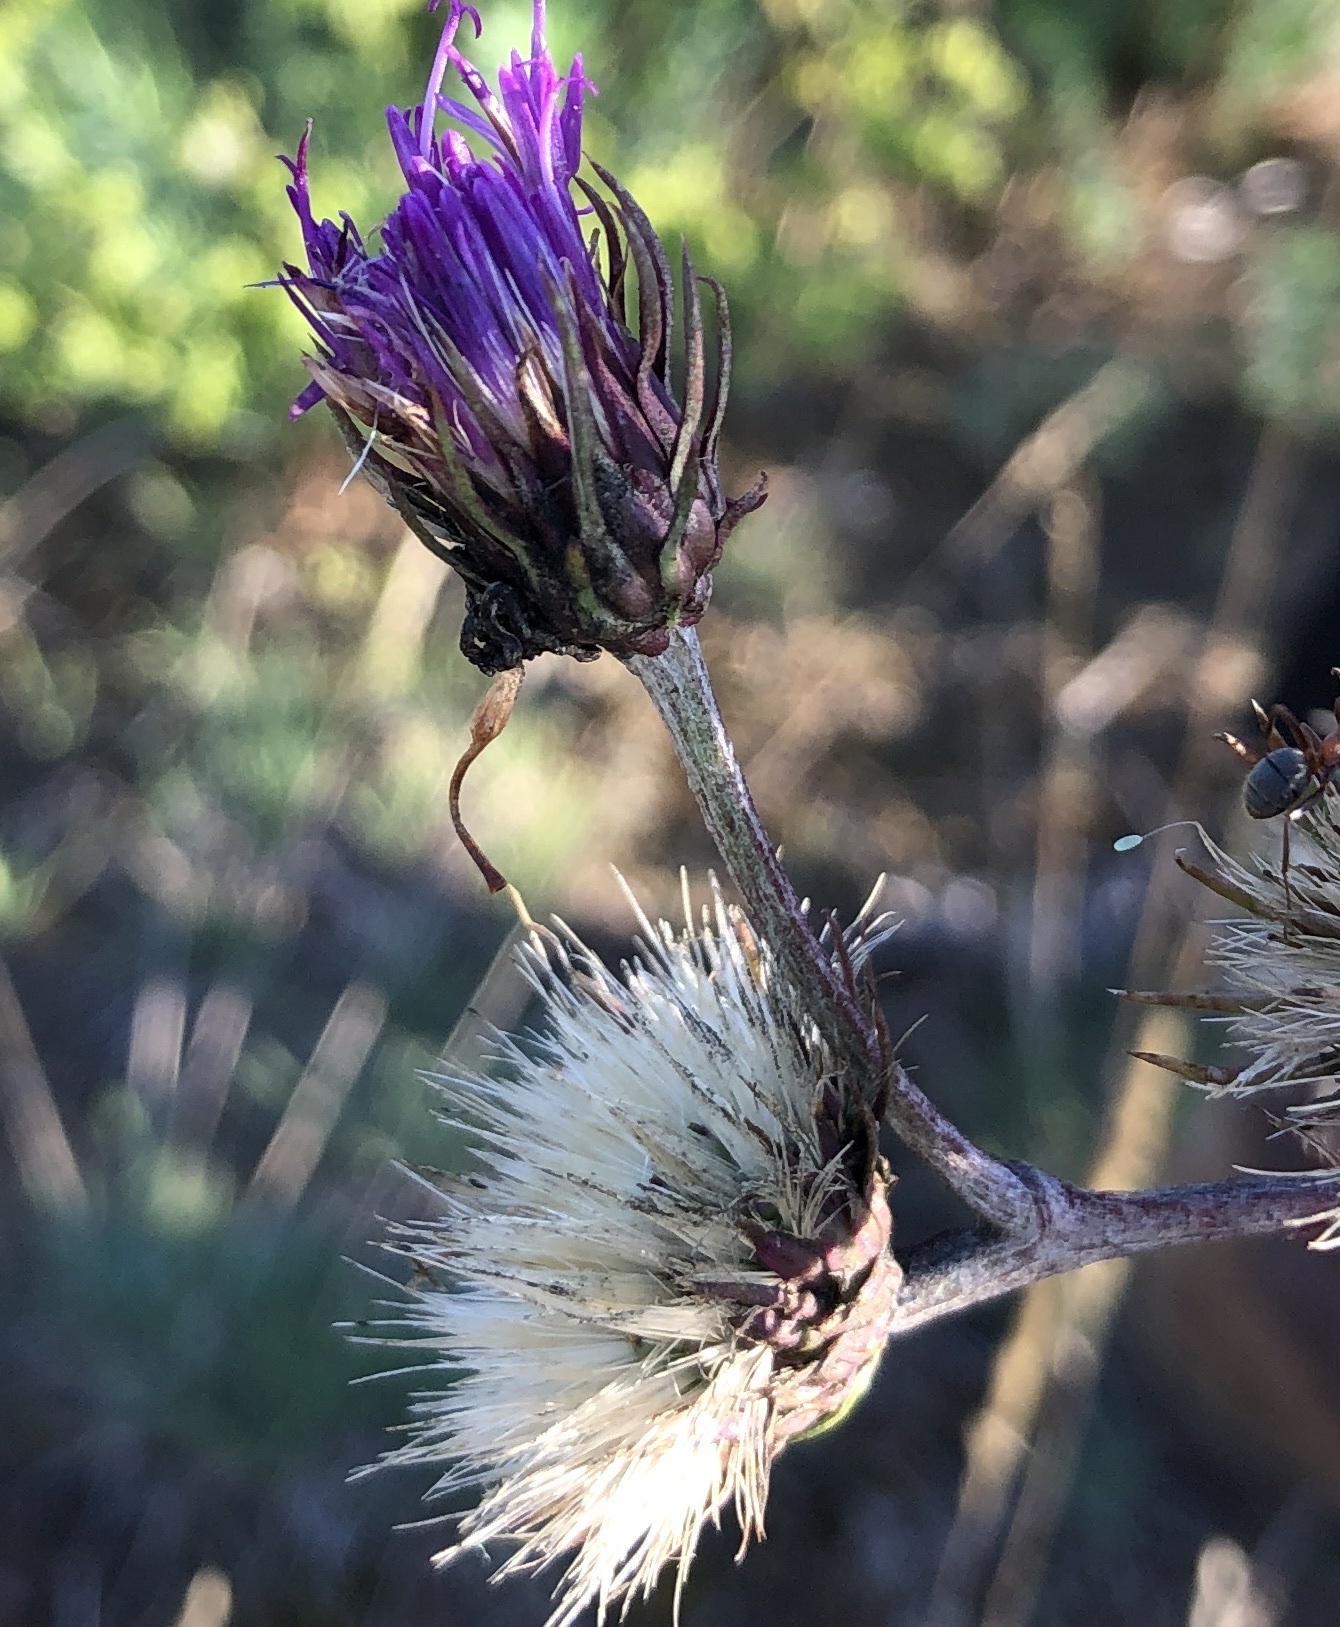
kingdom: Plantae
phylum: Tracheophyta
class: Magnoliopsida
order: Asterales
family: Asteraceae
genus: Jurinea
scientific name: Jurinea cyanoides
